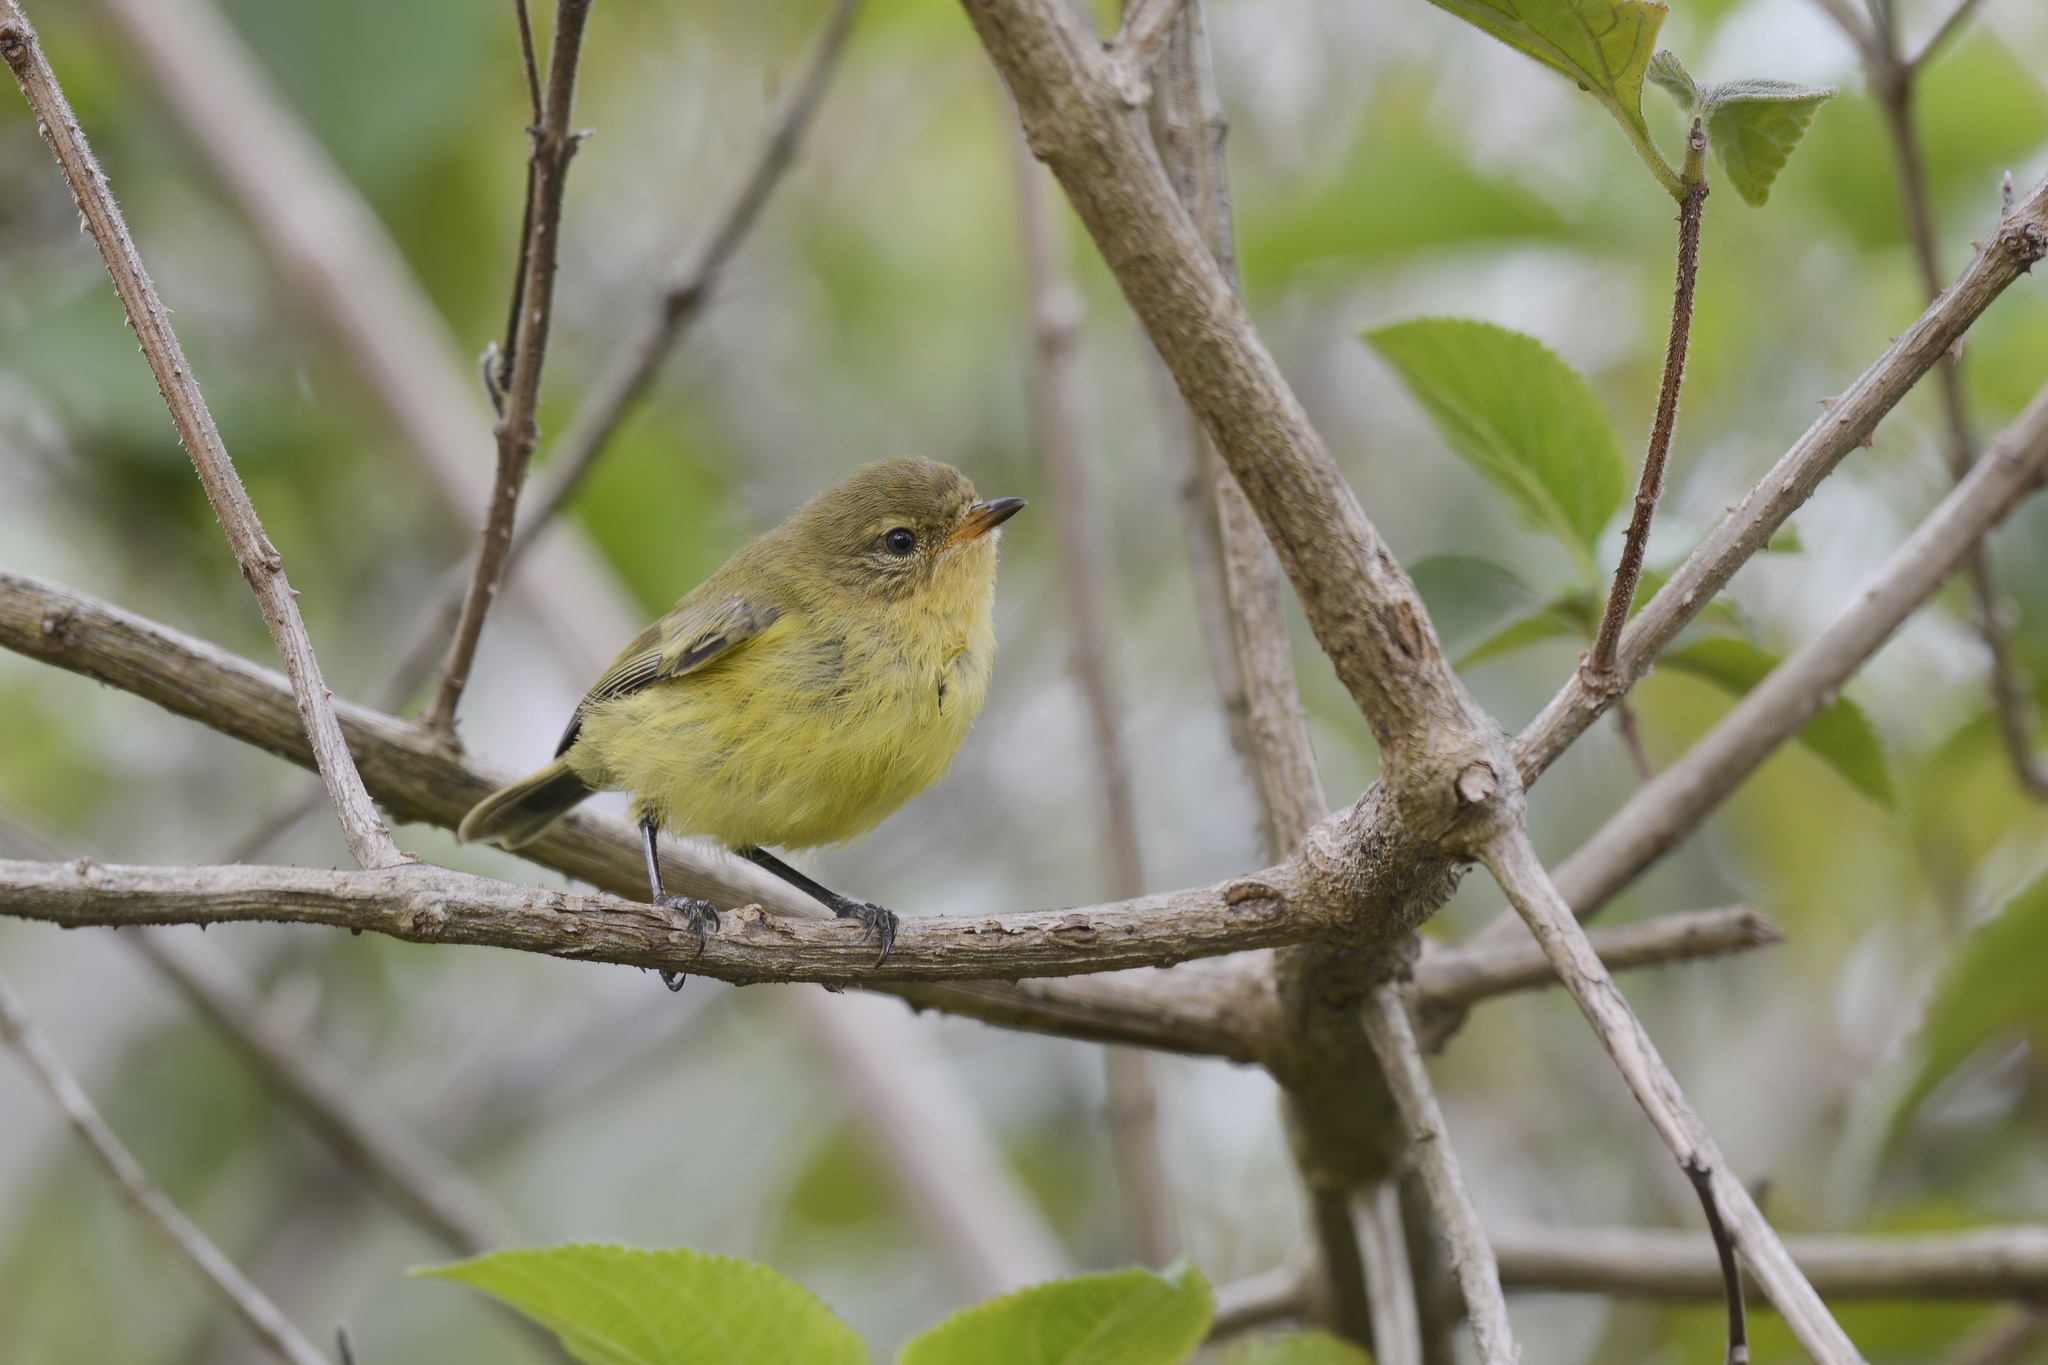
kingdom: Animalia
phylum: Chordata
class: Aves
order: Passeriformes
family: Acanthizidae
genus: Acanthiza
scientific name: Acanthiza nana
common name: Yellow thornbill
